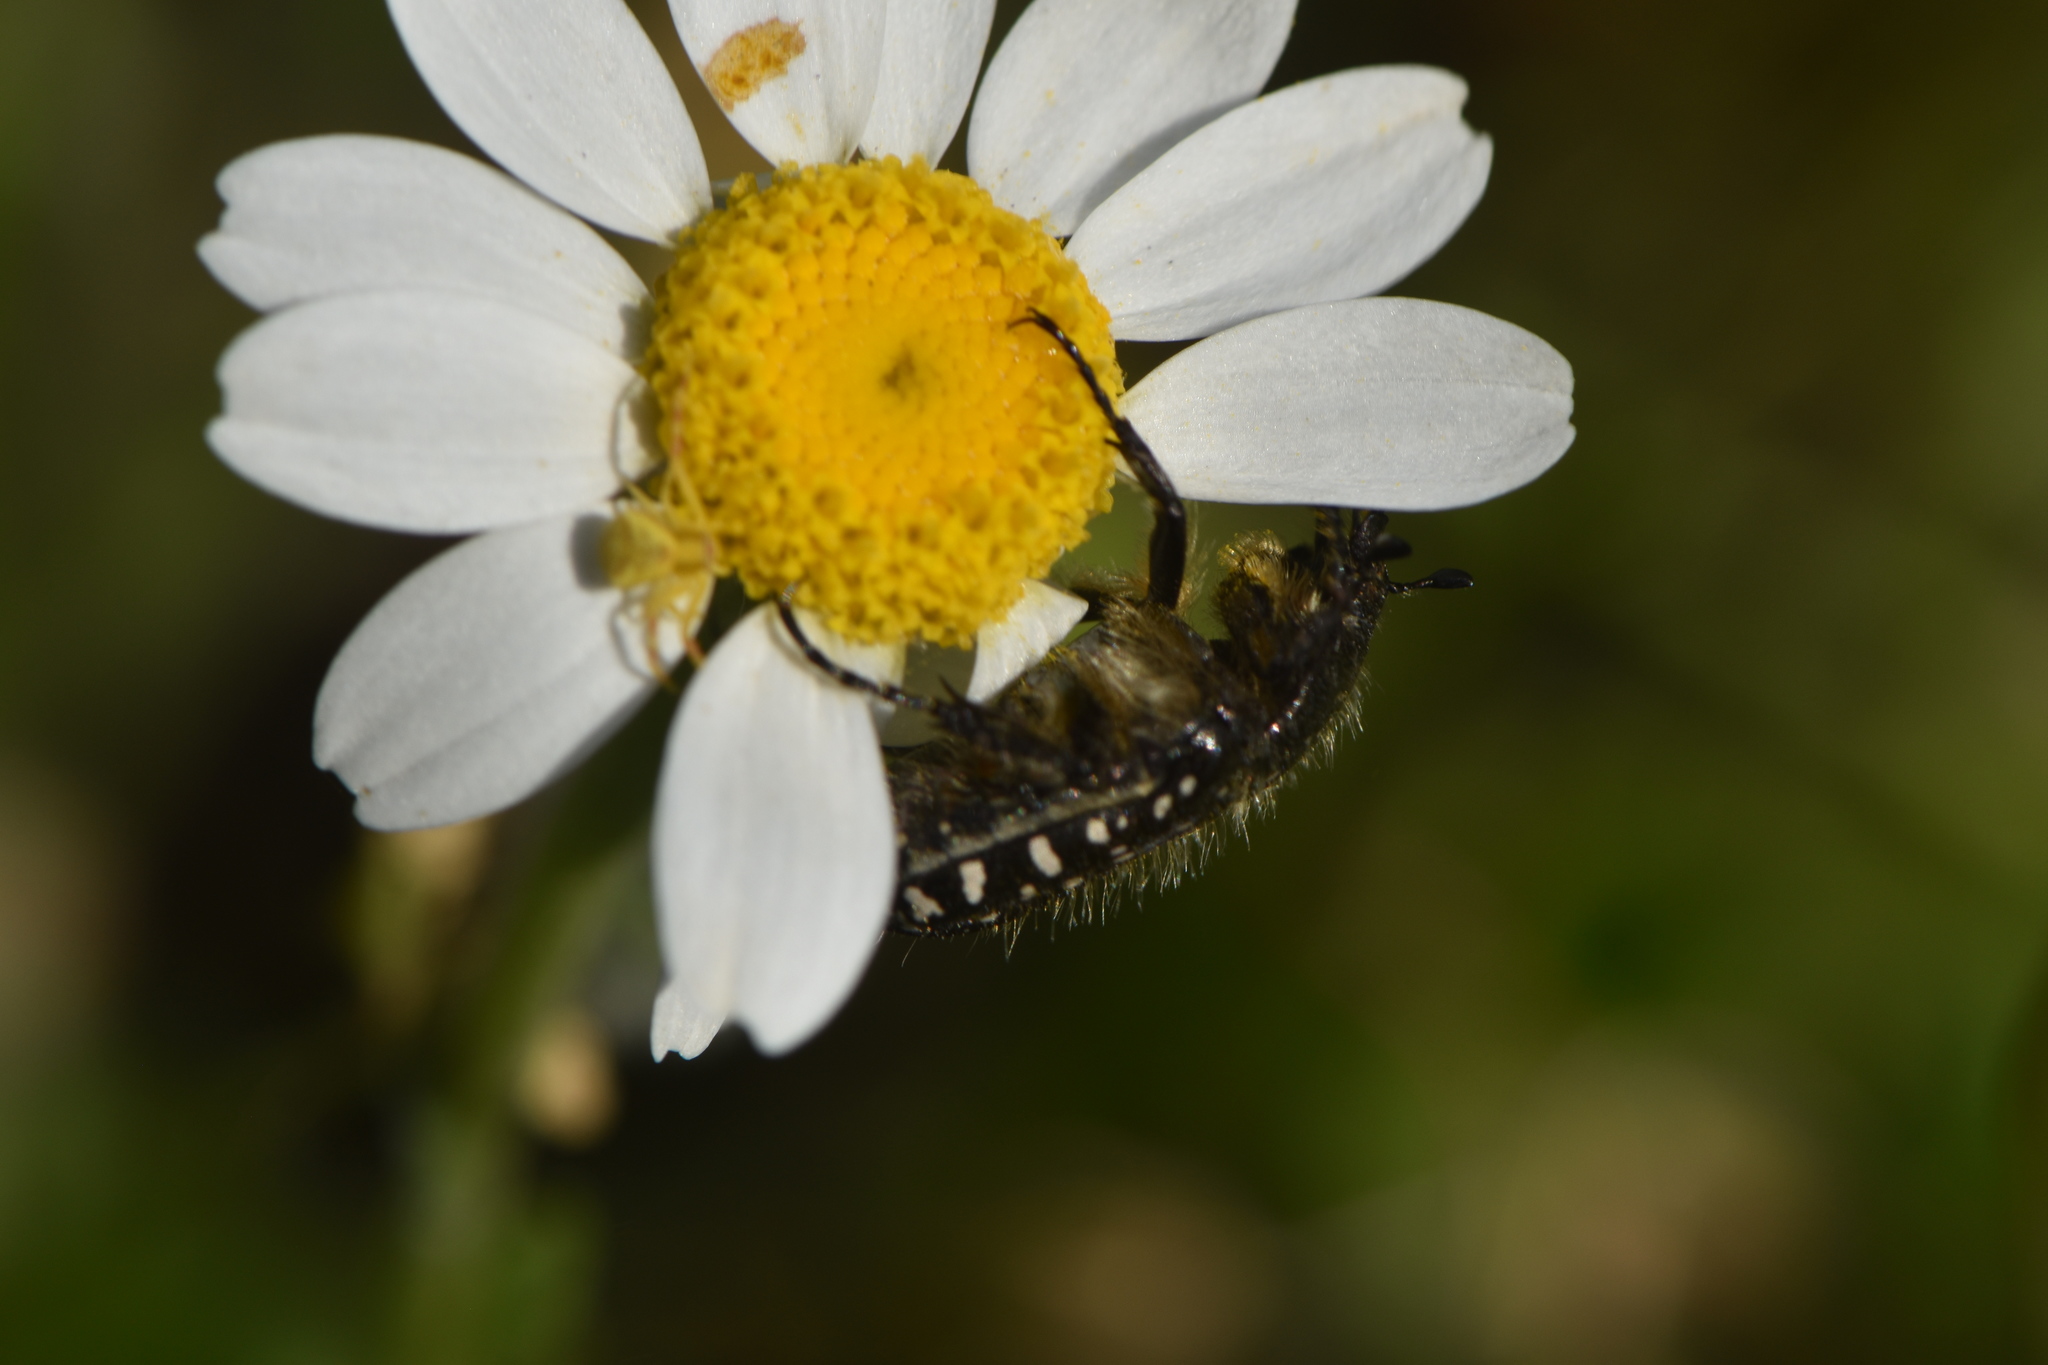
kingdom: Animalia
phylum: Arthropoda
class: Insecta
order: Coleoptera
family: Scarabaeidae
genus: Oxythyrea
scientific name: Oxythyrea funesta
